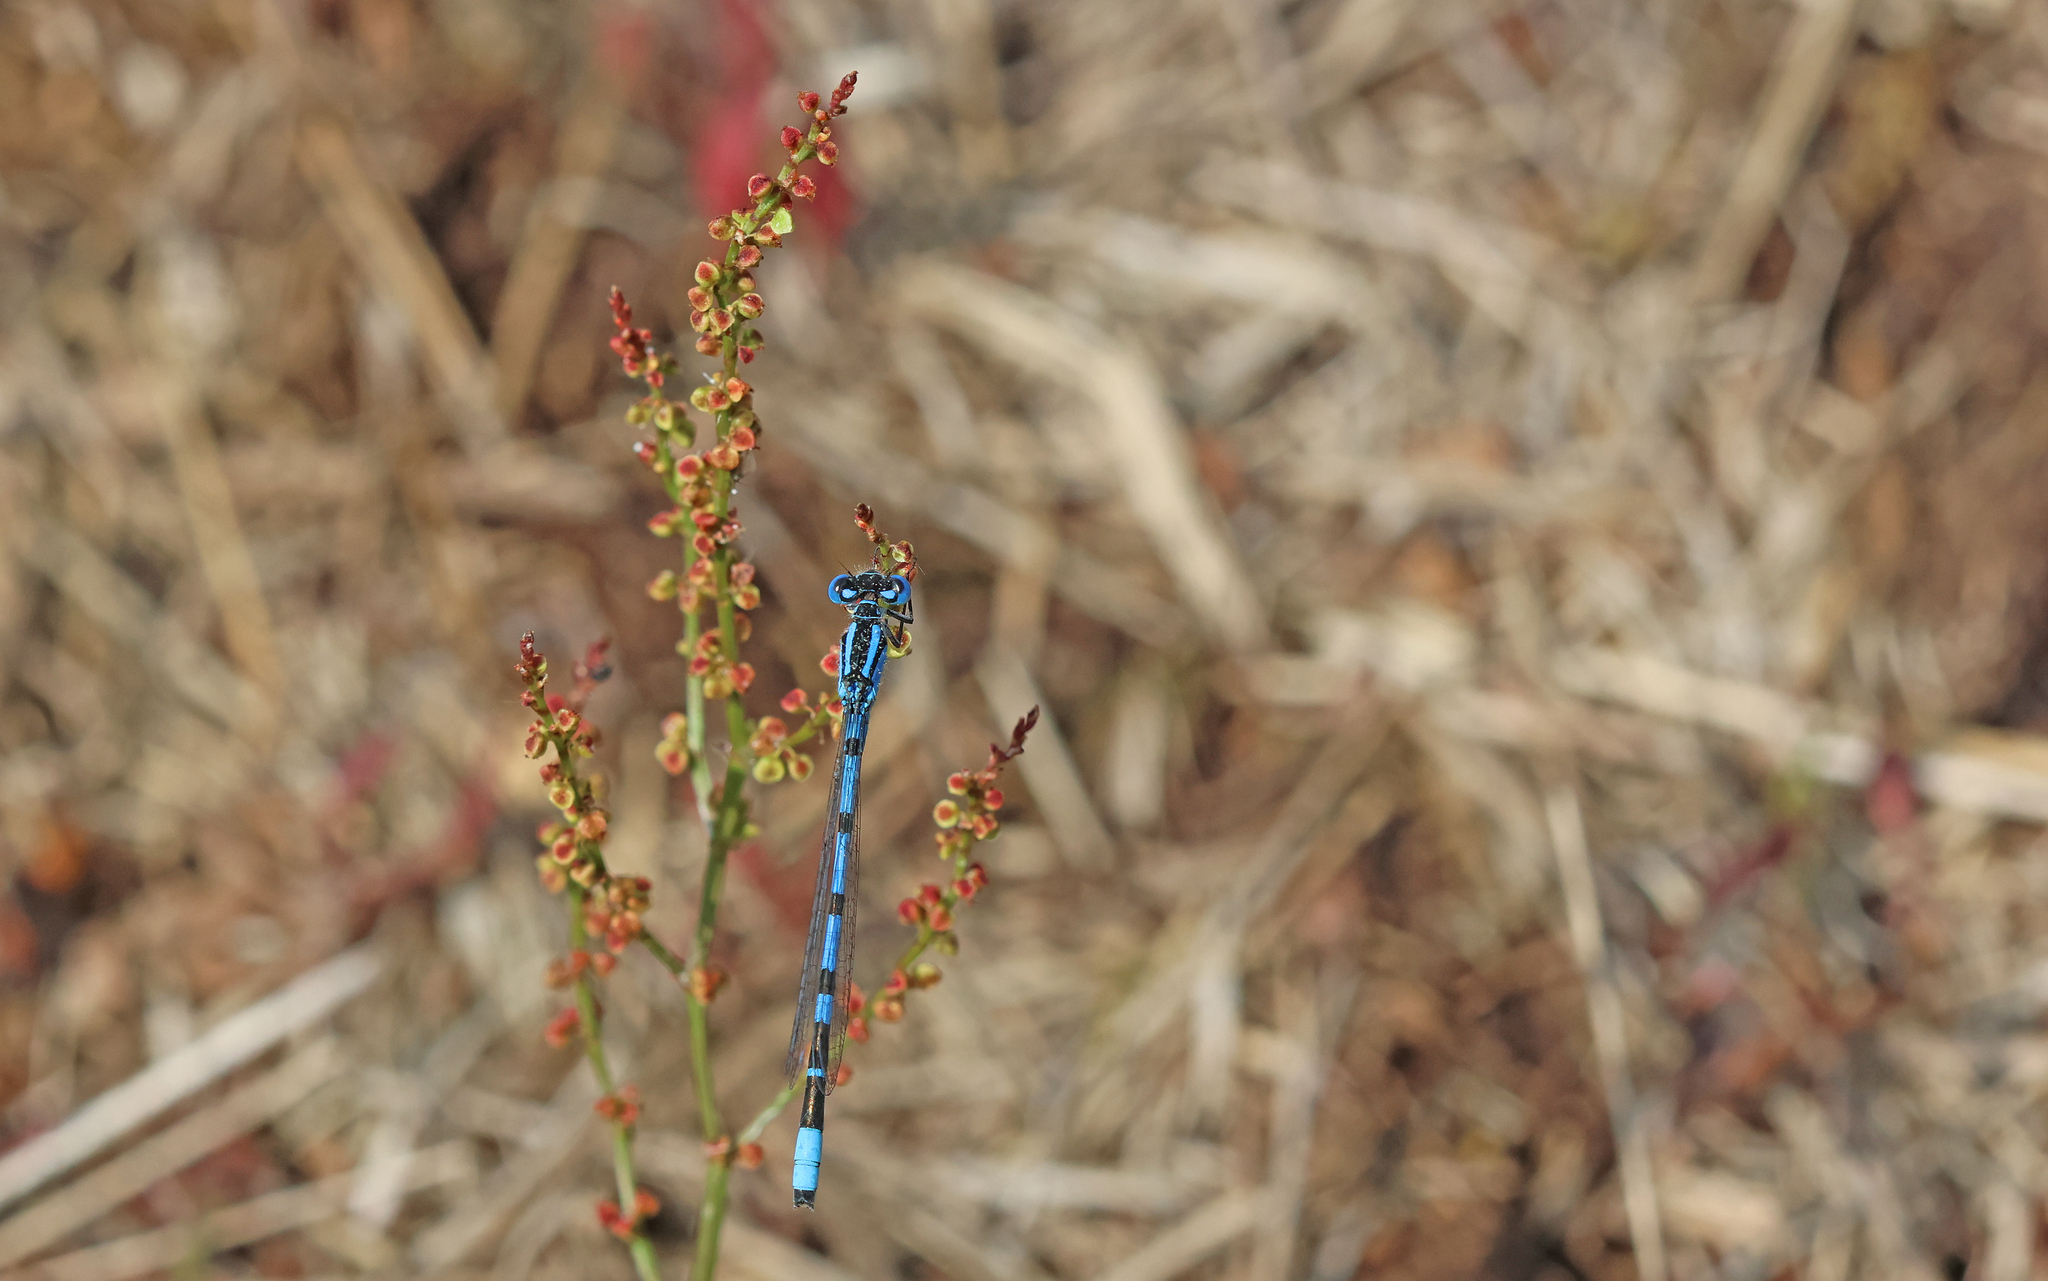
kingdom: Animalia
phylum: Arthropoda
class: Insecta
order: Odonata
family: Coenagrionidae
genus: Enallagma
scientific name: Enallagma cyathigerum
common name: Common blue damselfly
